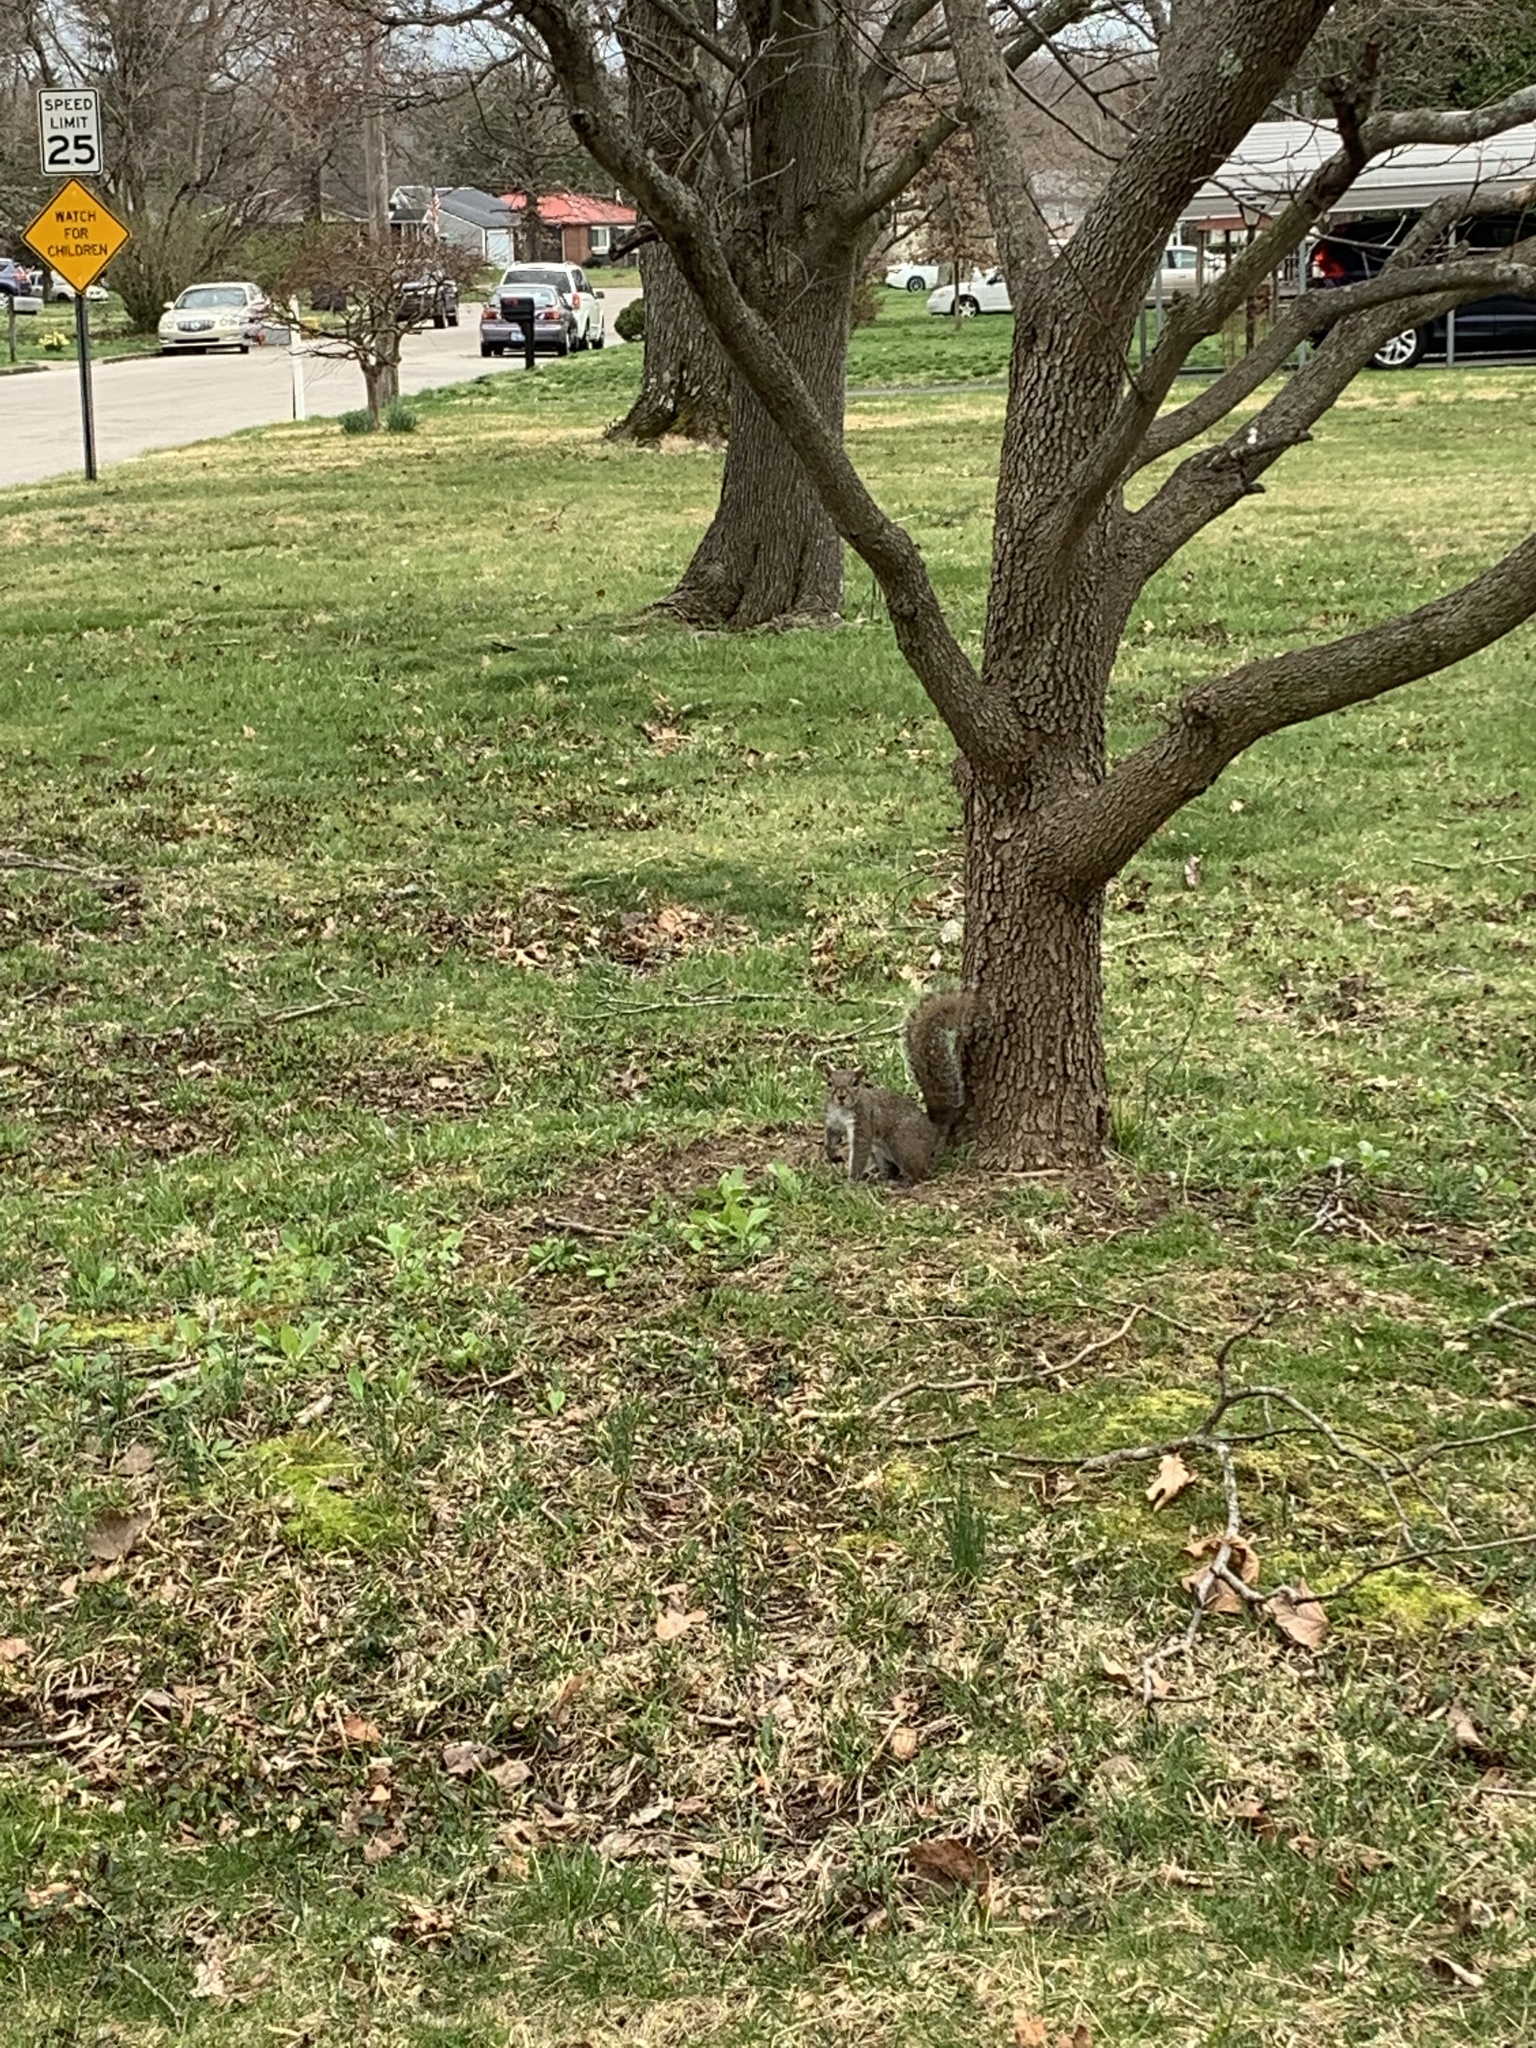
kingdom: Animalia
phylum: Chordata
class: Mammalia
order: Rodentia
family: Sciuridae
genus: Sciurus
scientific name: Sciurus carolinensis
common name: Eastern gray squirrel
